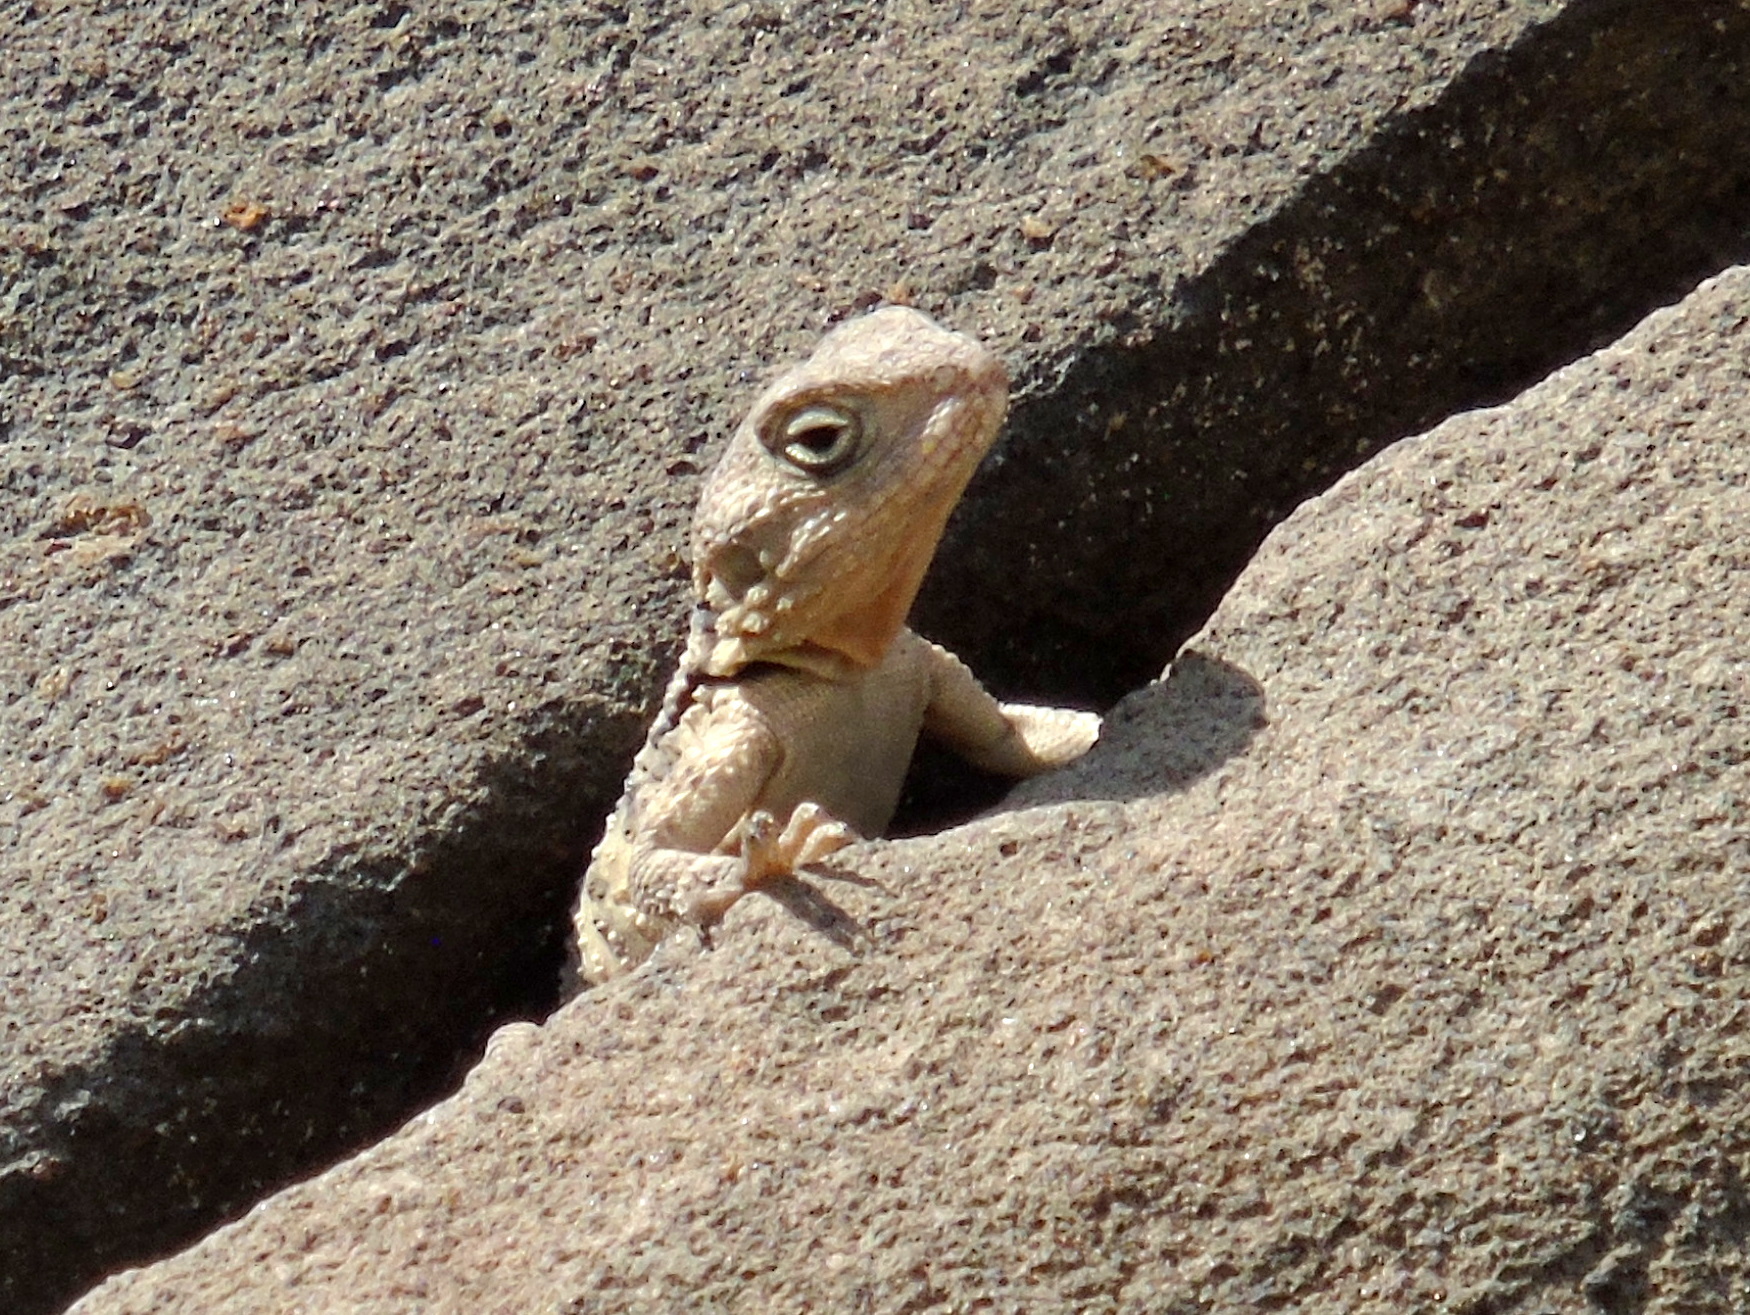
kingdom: Animalia
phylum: Chordata
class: Squamata
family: Agamidae
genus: Stellagama
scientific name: Stellagama stellio
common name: Starred agama
